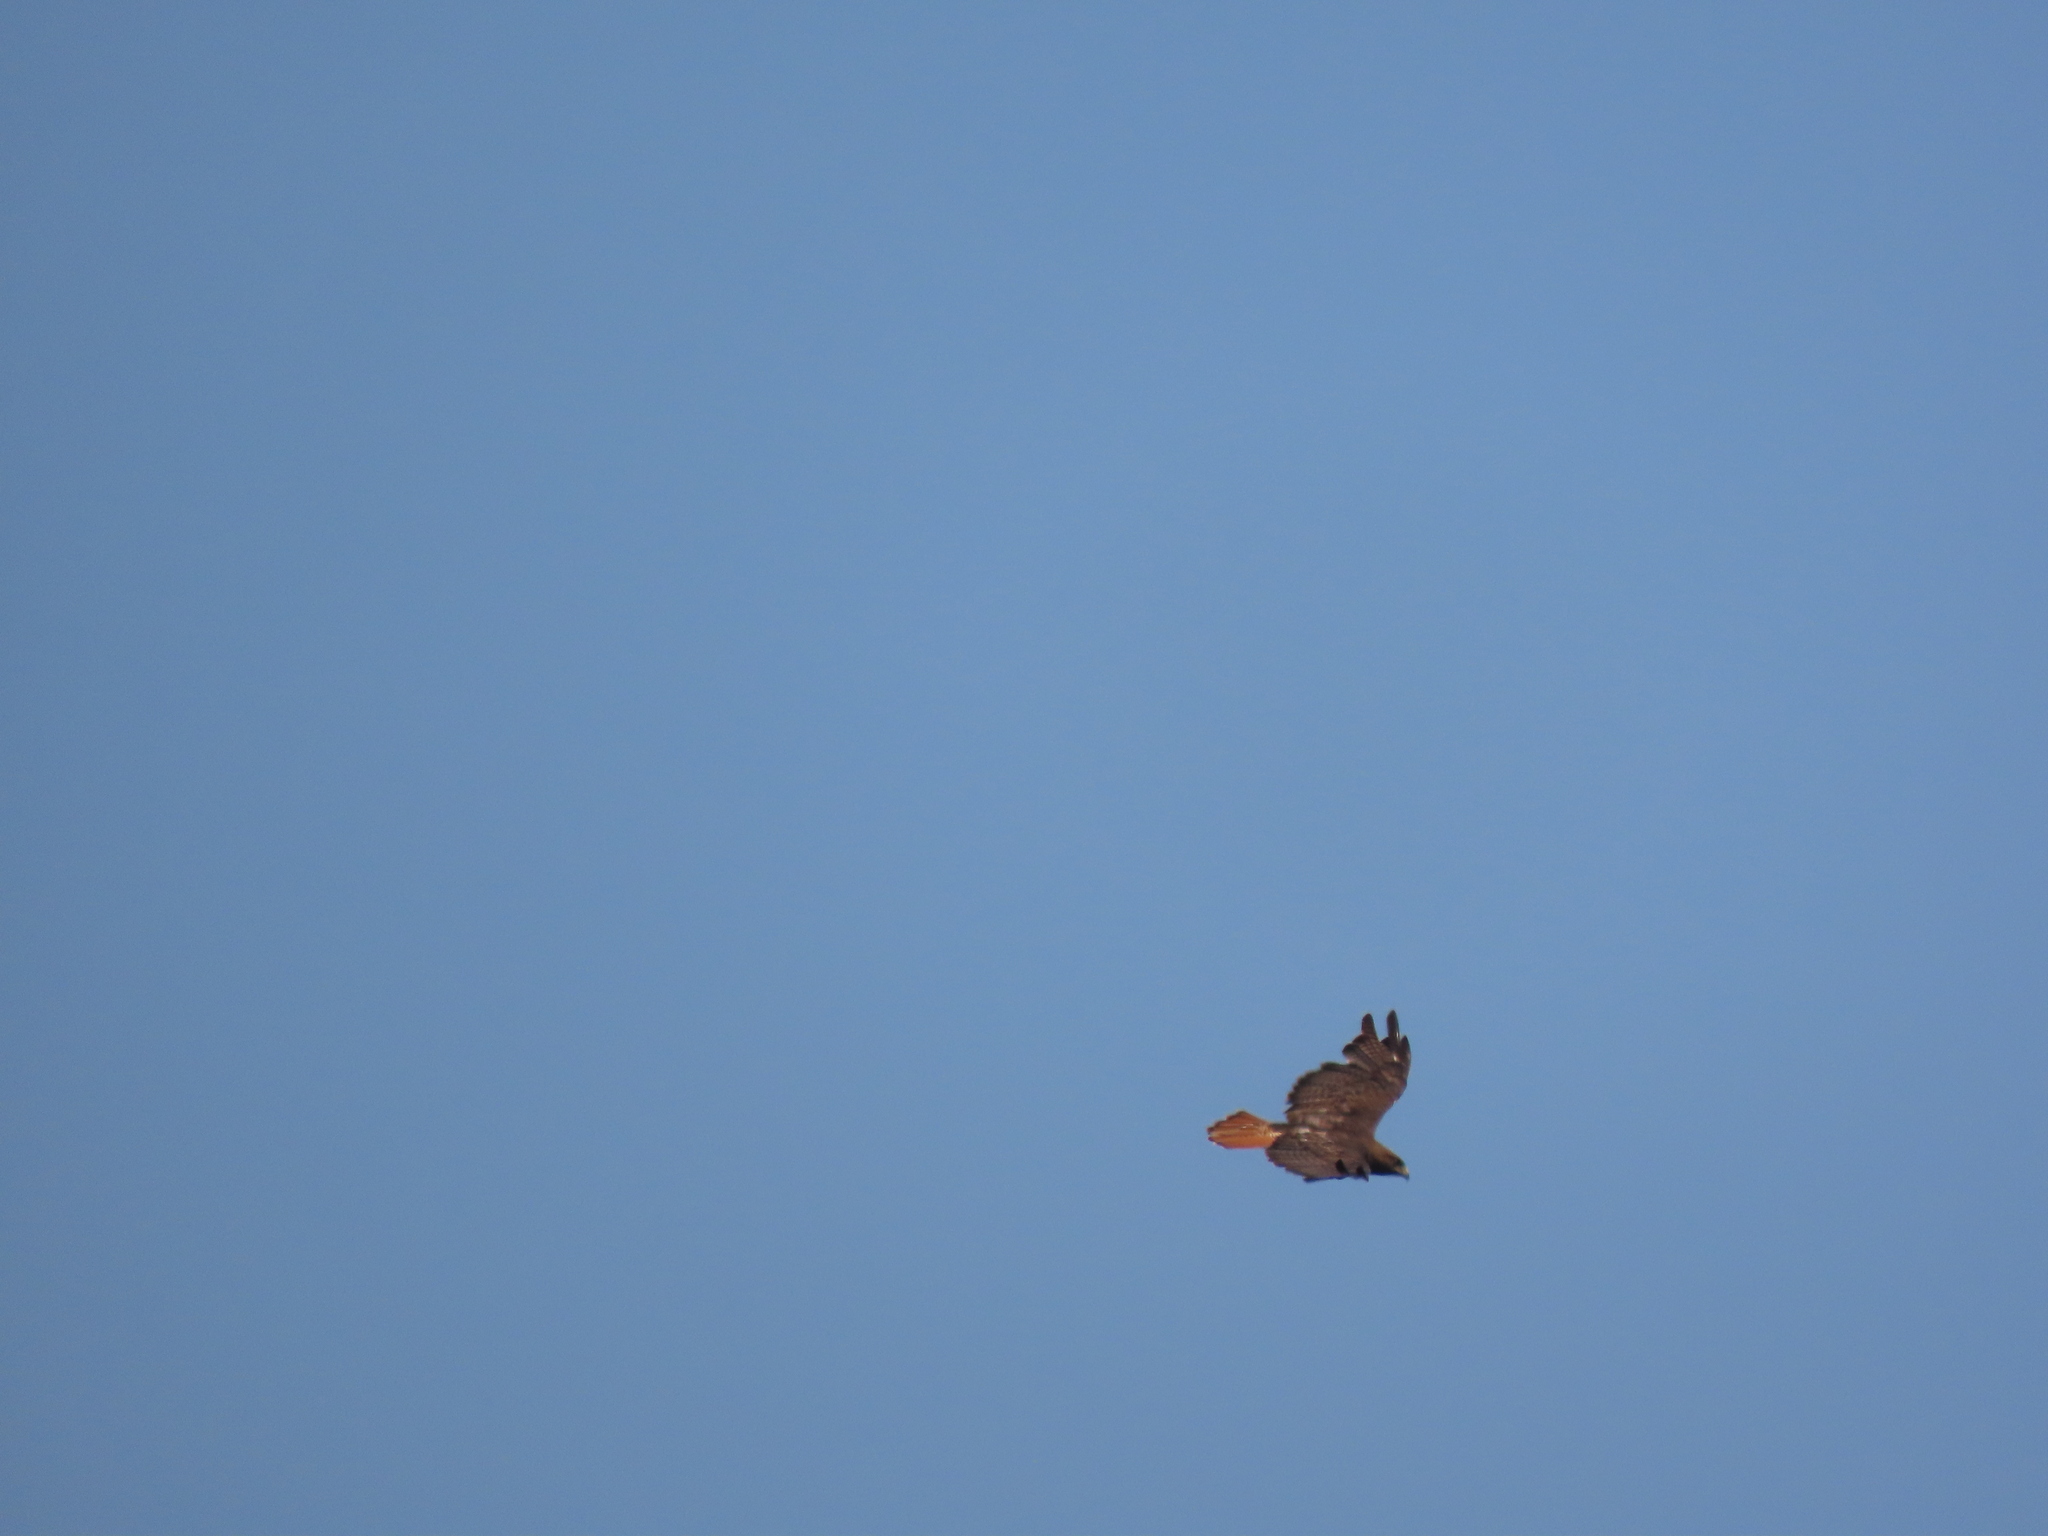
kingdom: Animalia
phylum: Chordata
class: Aves
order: Accipitriformes
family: Accipitridae
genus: Buteo
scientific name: Buteo jamaicensis
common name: Red-tailed hawk
